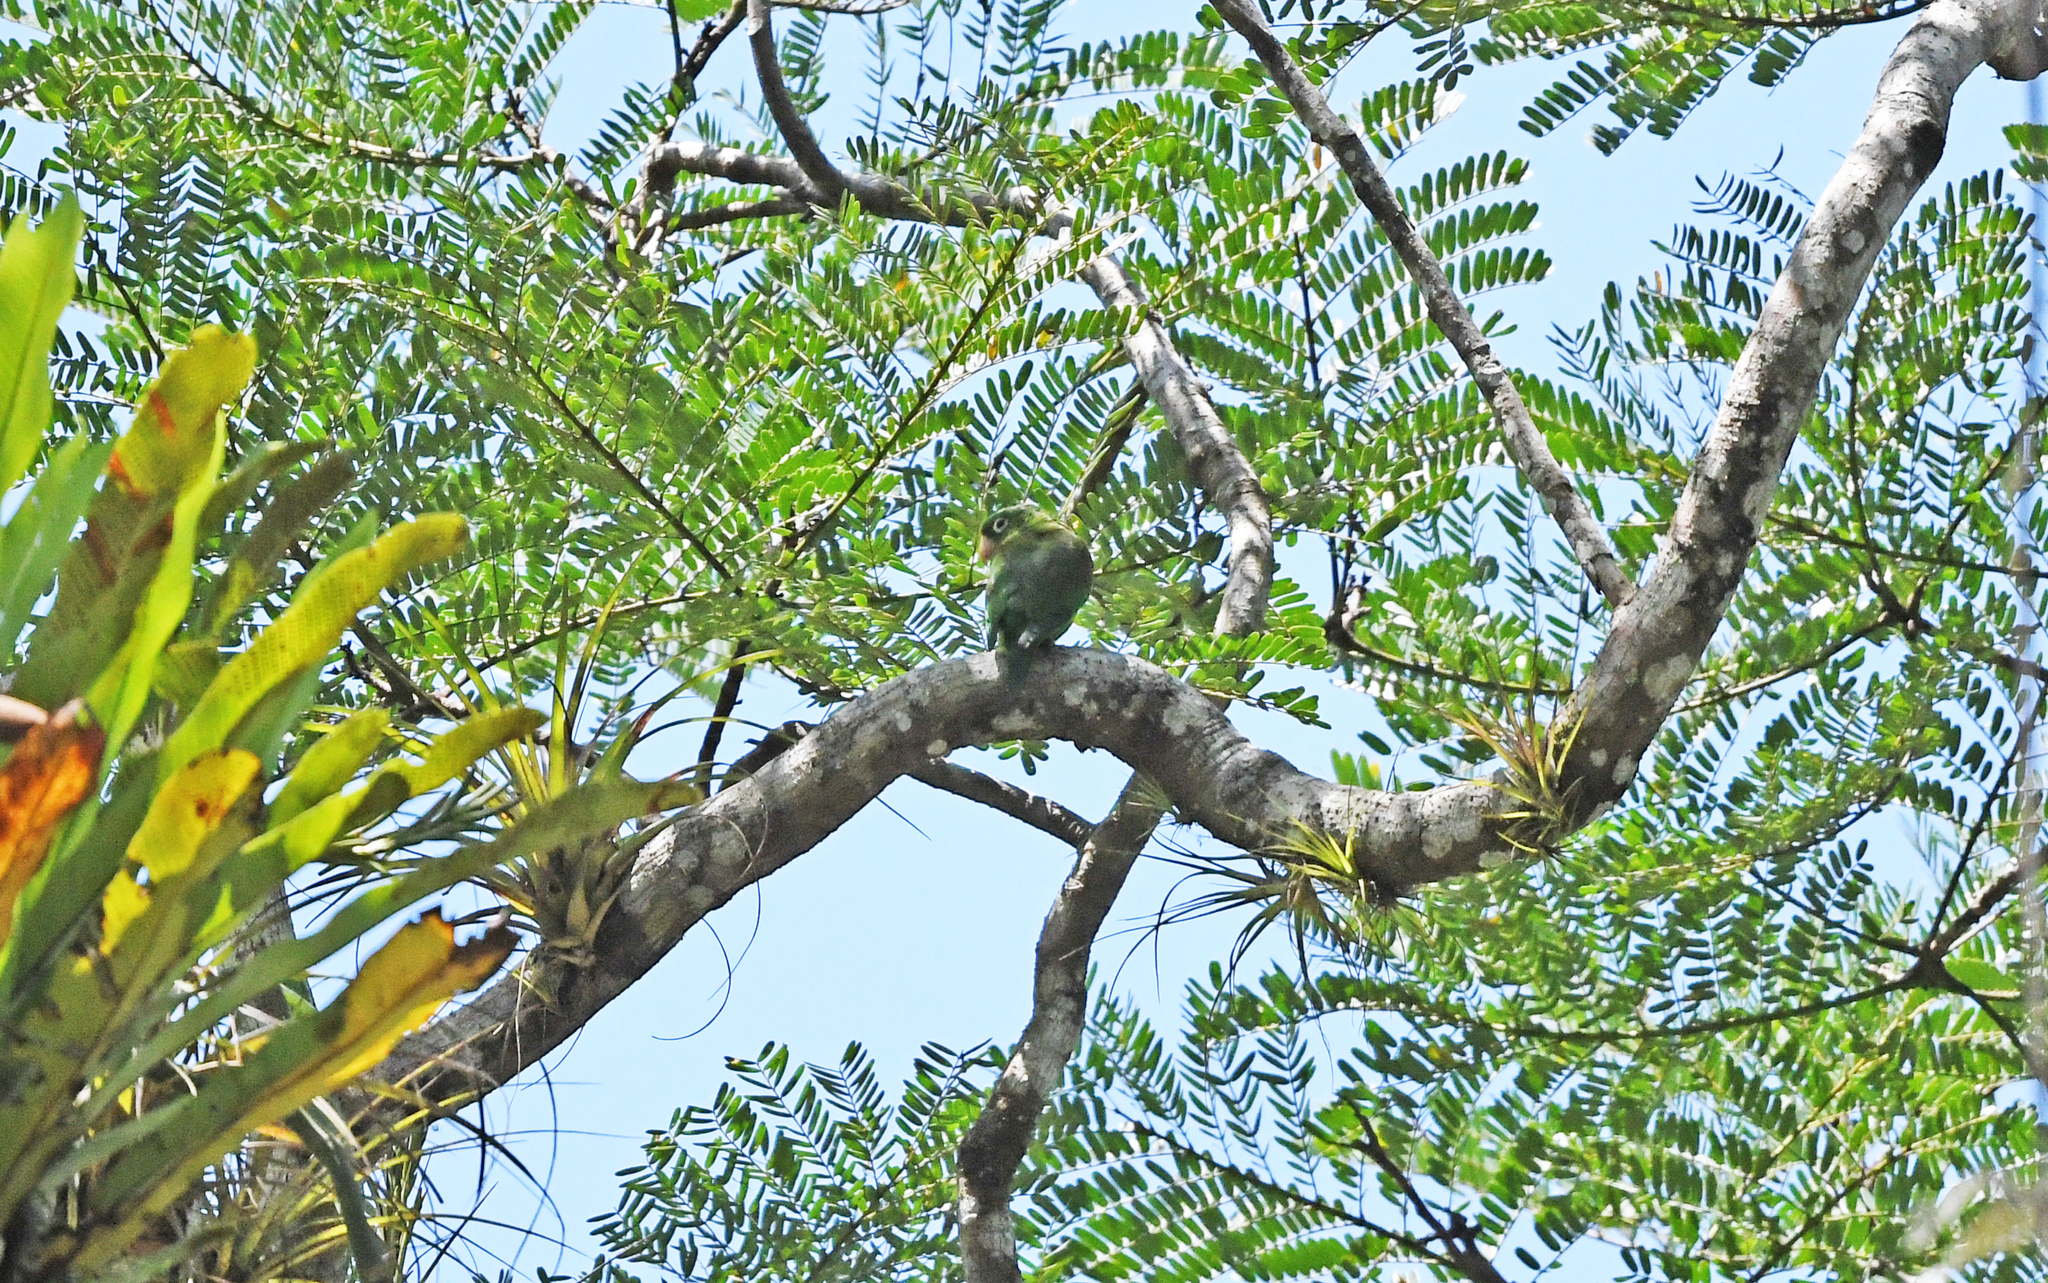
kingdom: Animalia
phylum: Chordata
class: Aves
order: Psittaciformes
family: Psittacidae
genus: Brotogeris
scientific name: Brotogeris jugularis
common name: Orange-chinned parakeet
